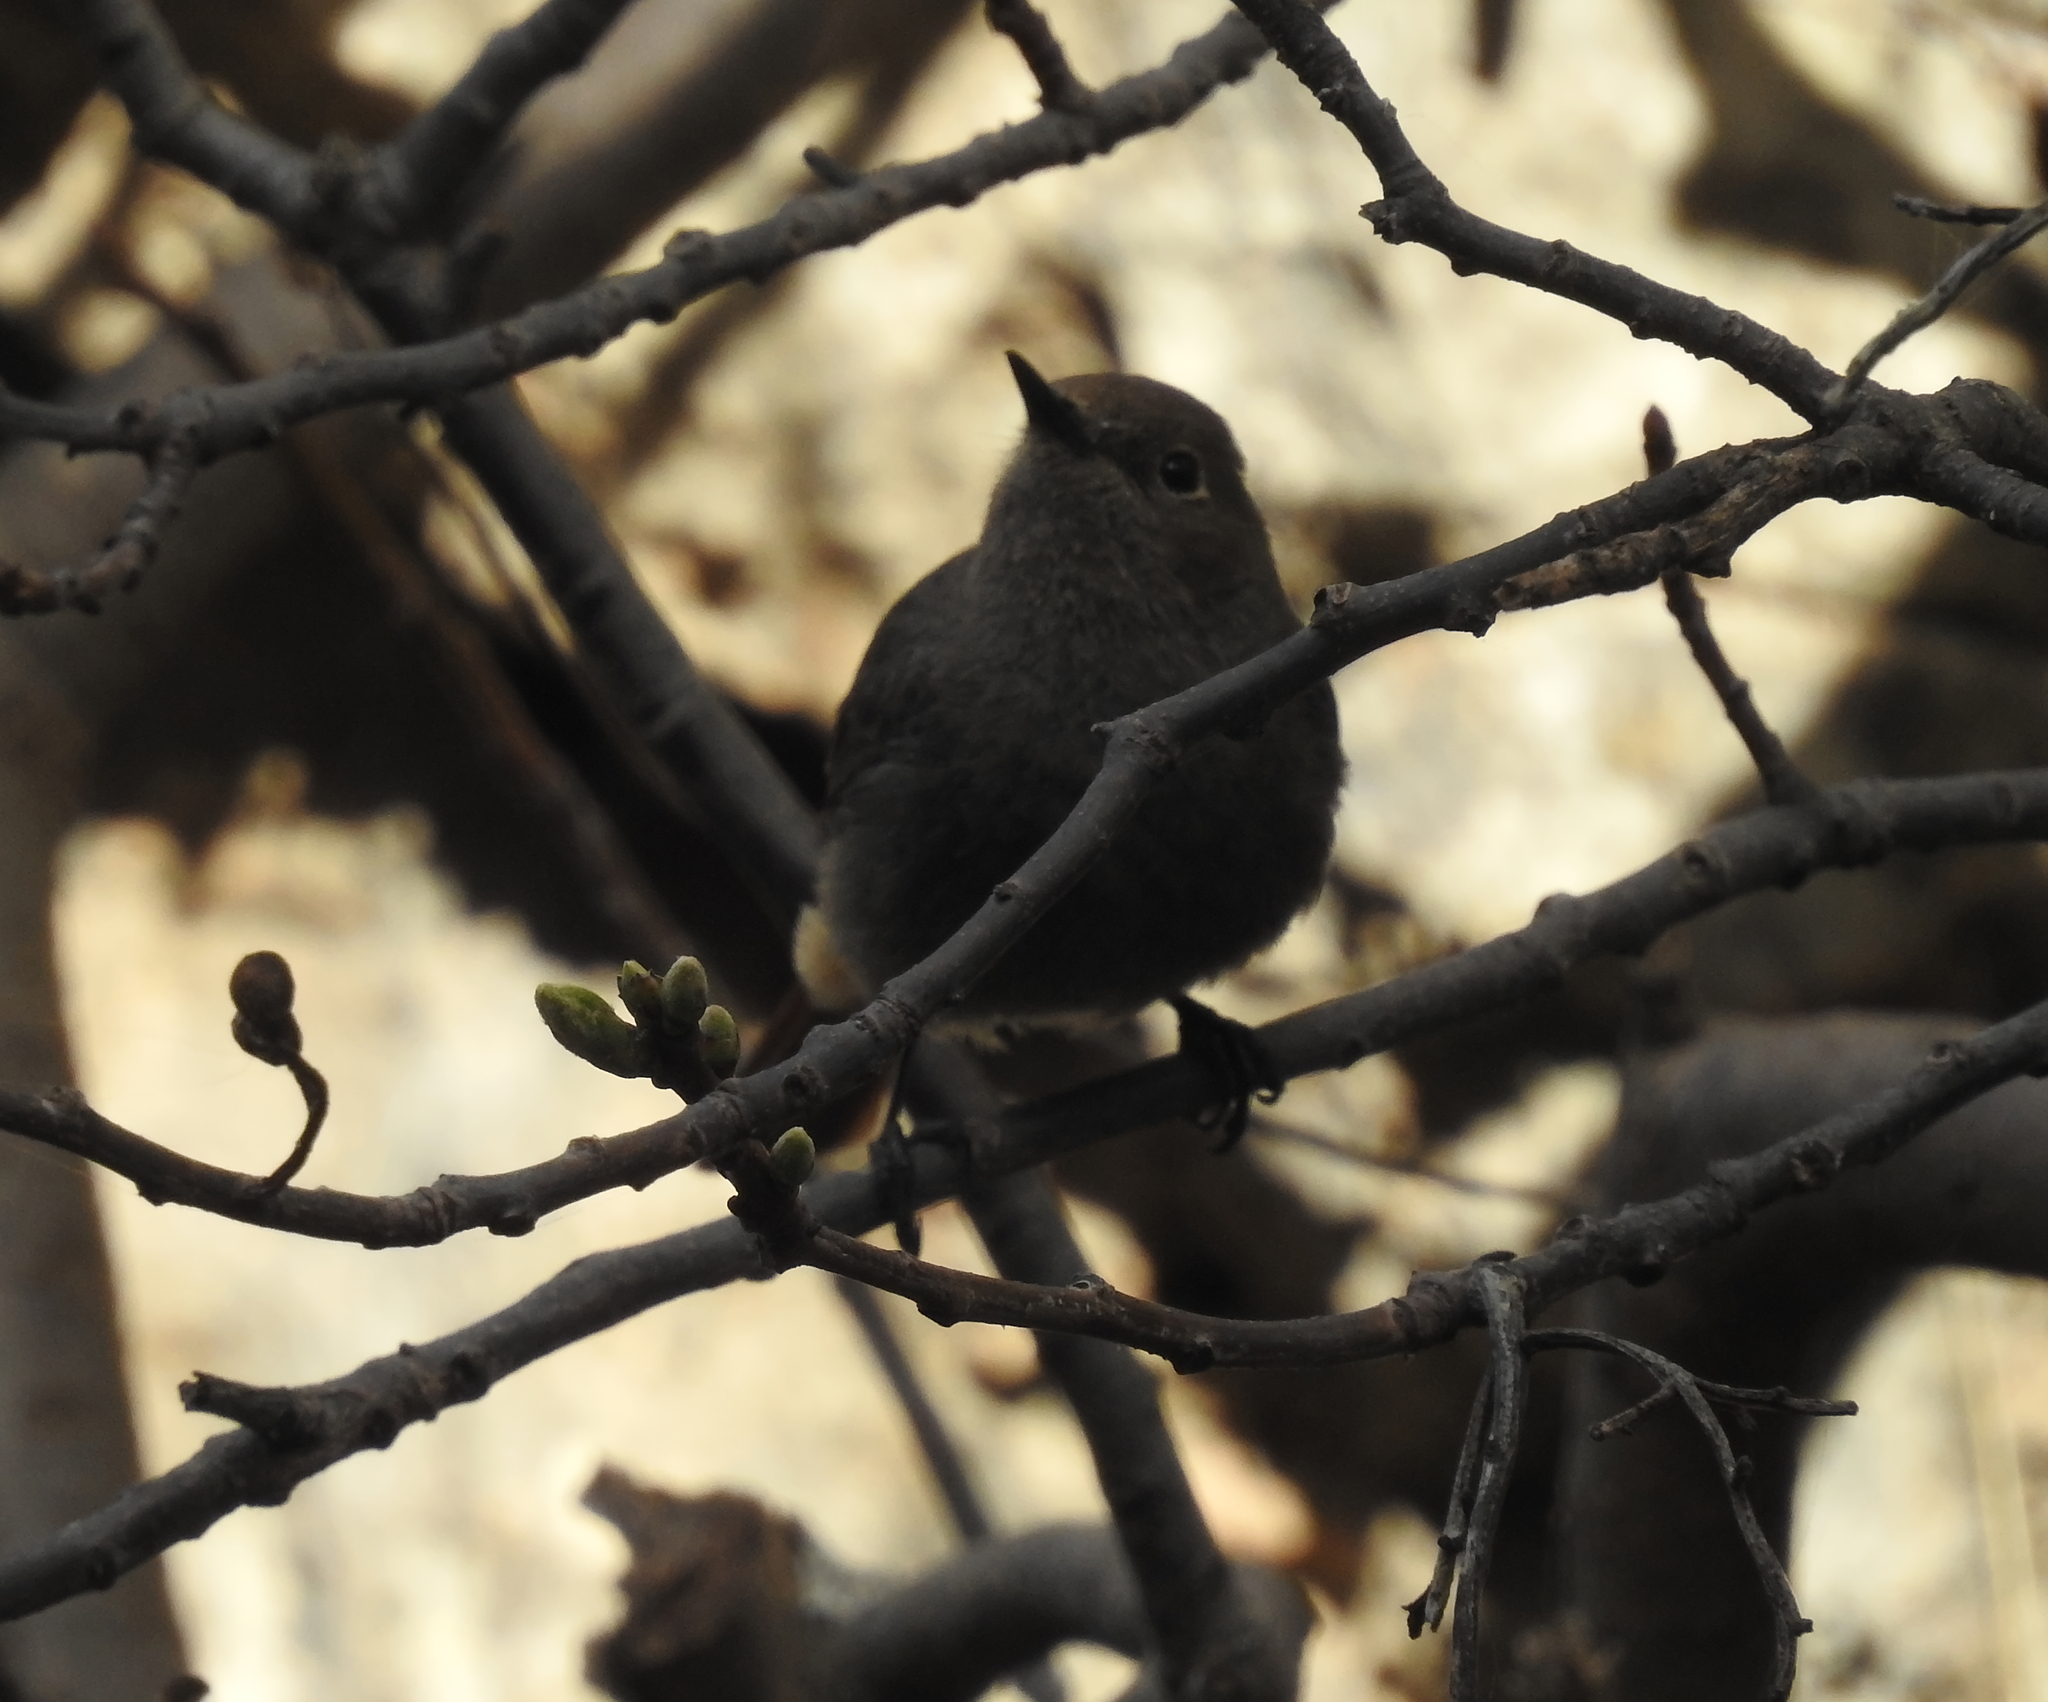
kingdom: Animalia
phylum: Chordata
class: Aves
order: Passeriformes
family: Muscicapidae
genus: Phoenicurus
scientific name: Phoenicurus ochruros
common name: Black redstart
